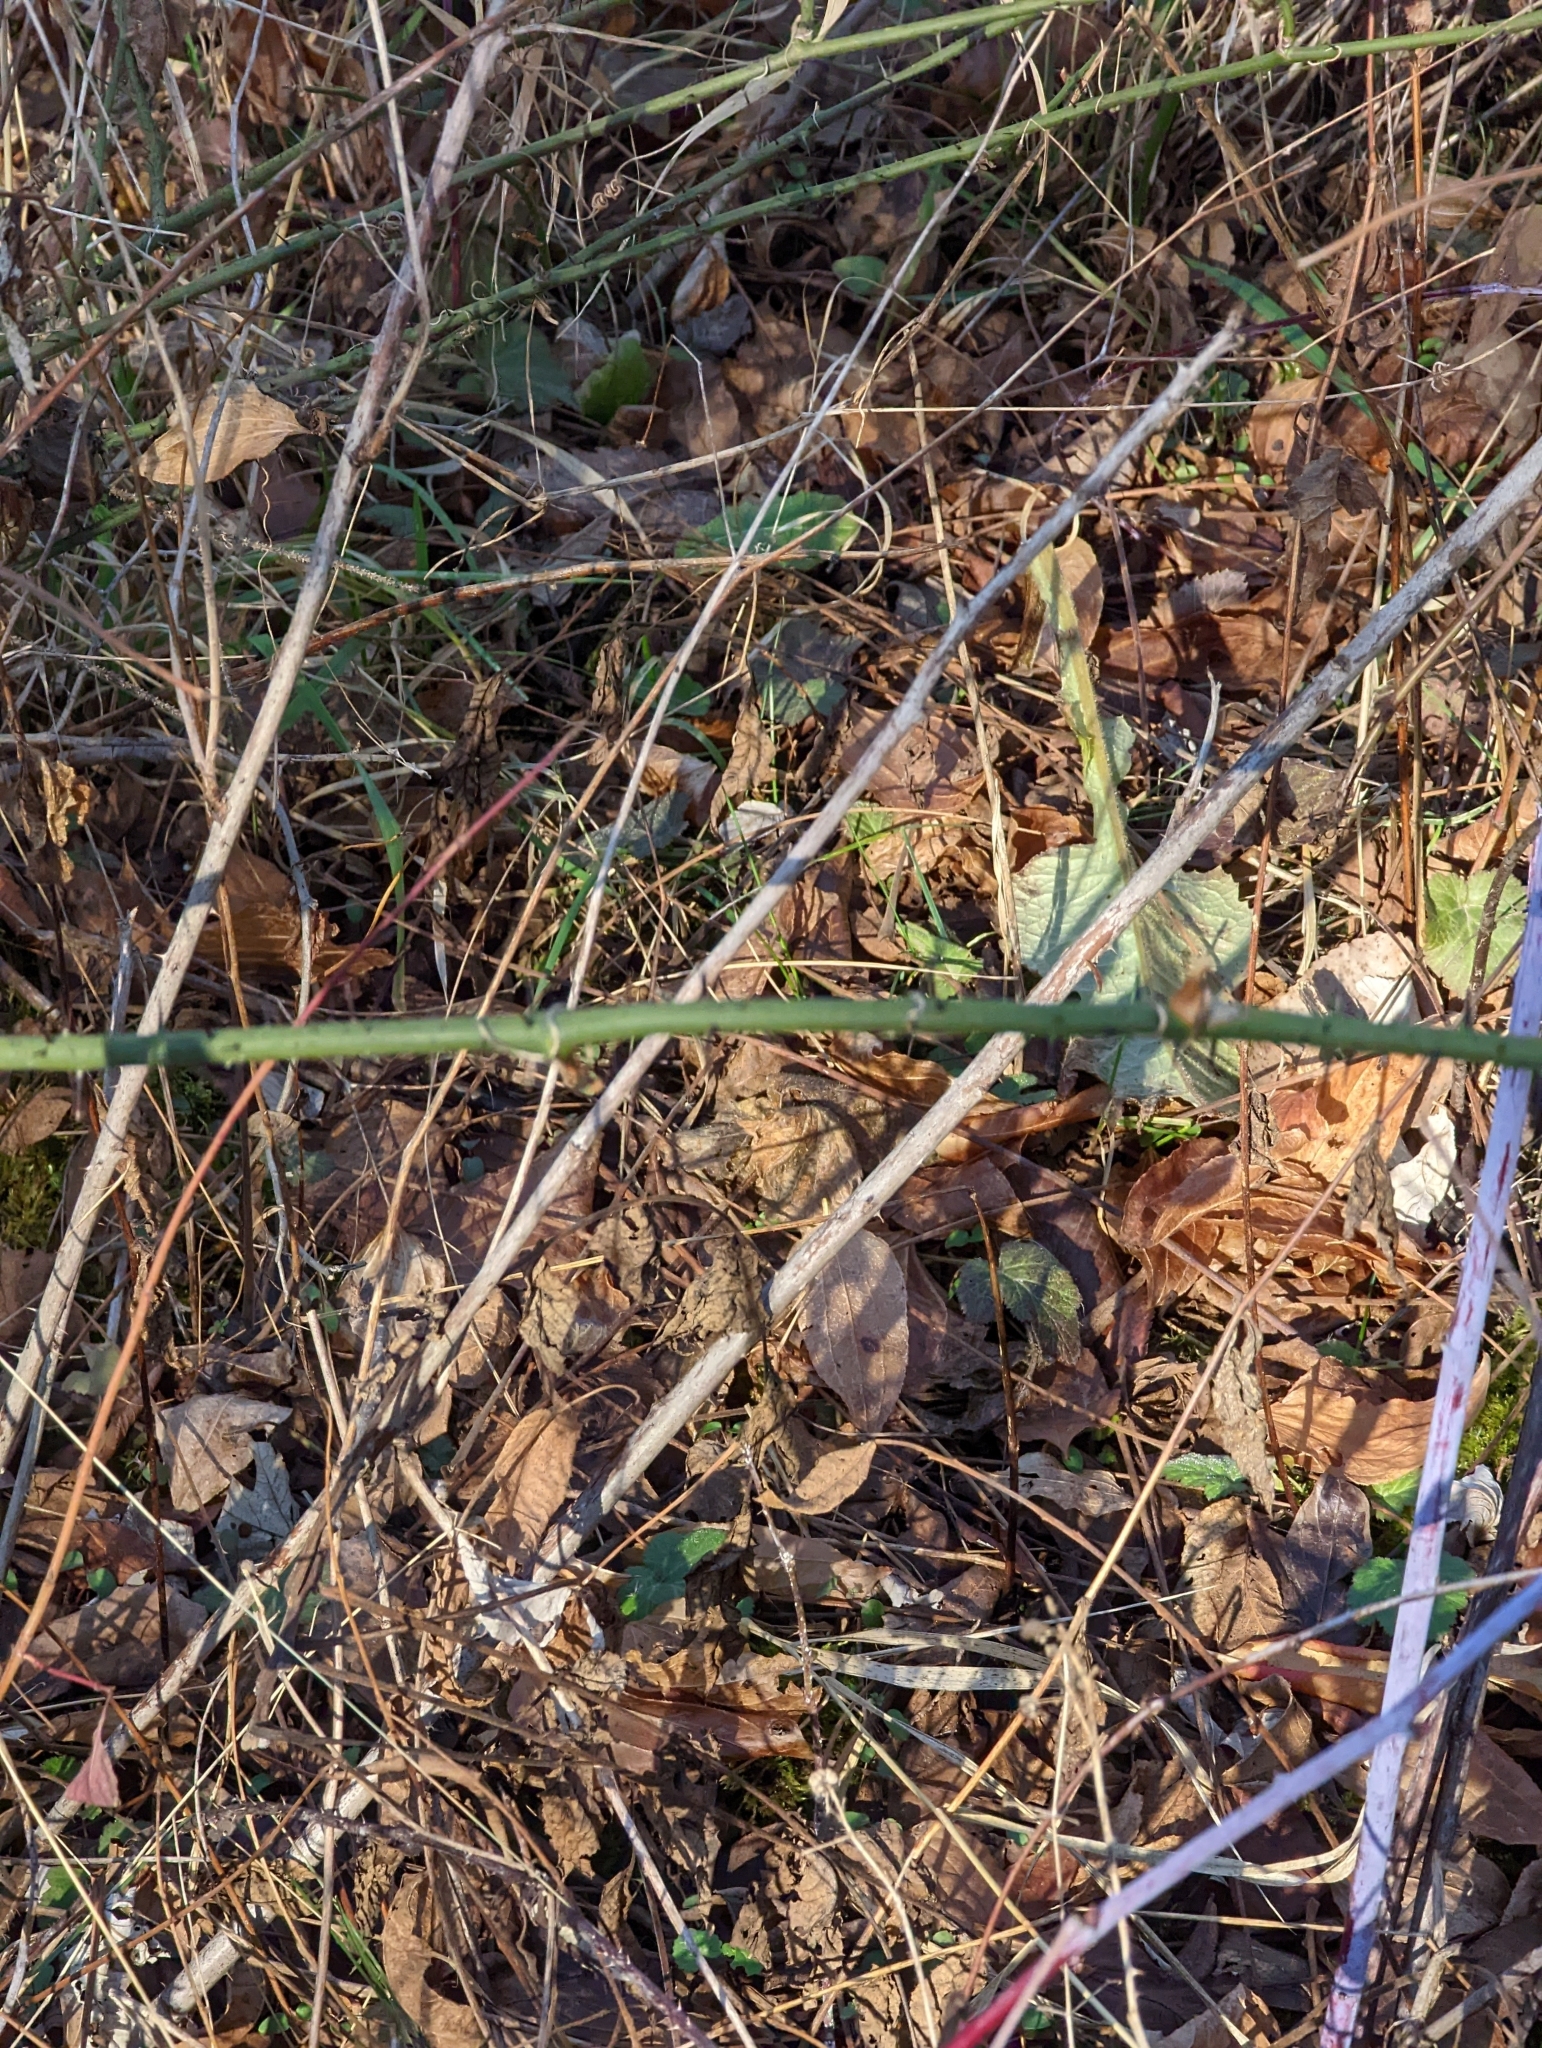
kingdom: Plantae
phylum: Tracheophyta
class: Liliopsida
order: Liliales
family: Smilacaceae
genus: Smilax
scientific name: Smilax tamnoides
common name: Hellfetter
